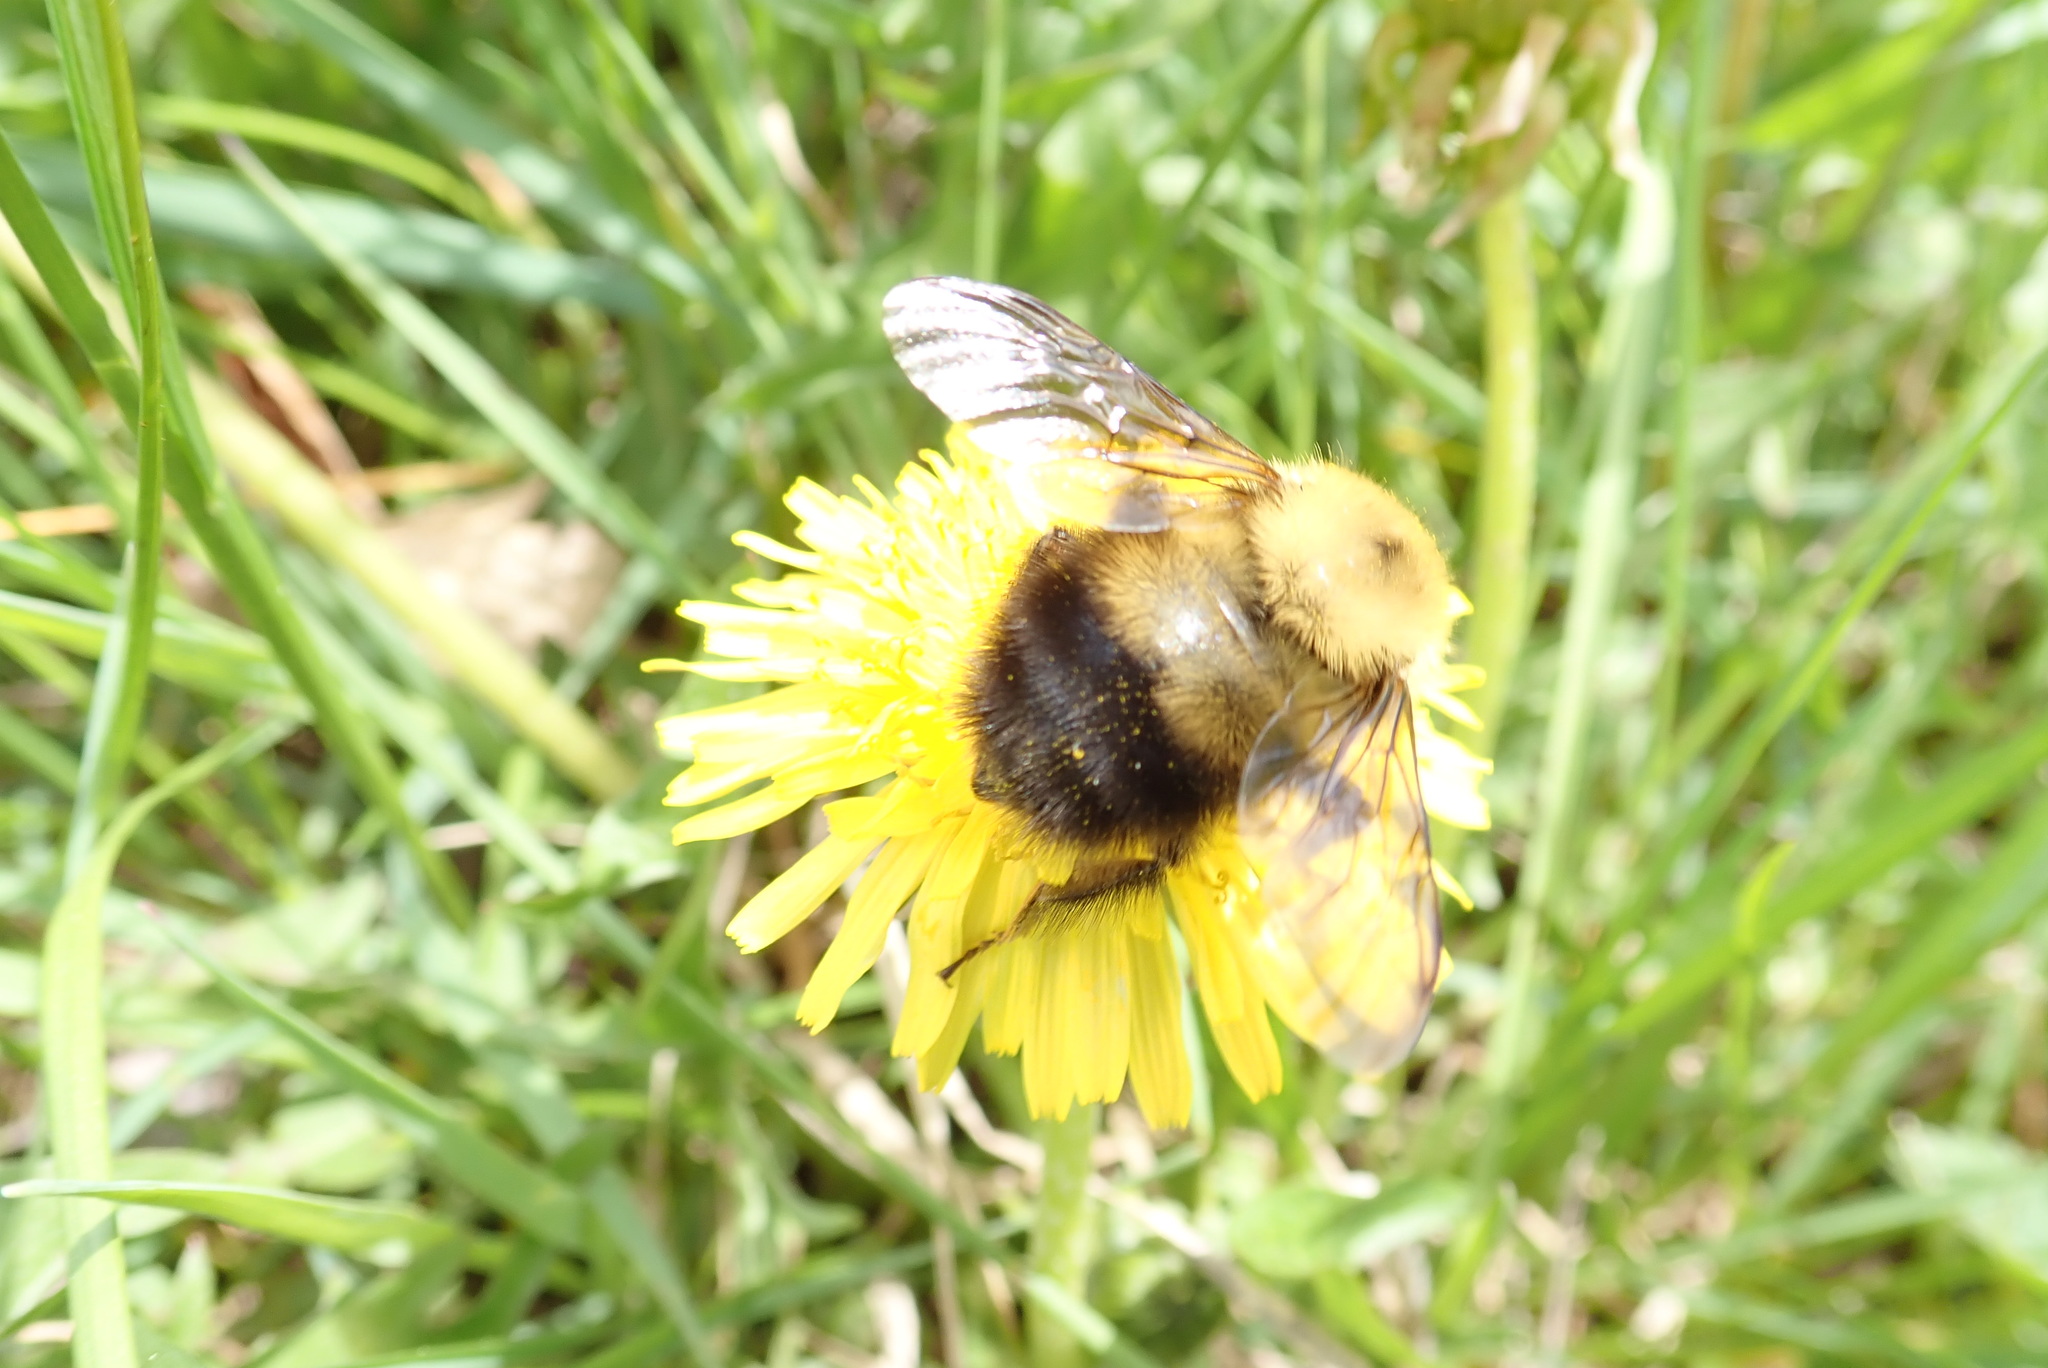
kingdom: Animalia
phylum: Arthropoda
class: Insecta
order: Hymenoptera
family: Apidae
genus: Bombus
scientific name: Bombus perplexus
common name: Confusing bumble bee
